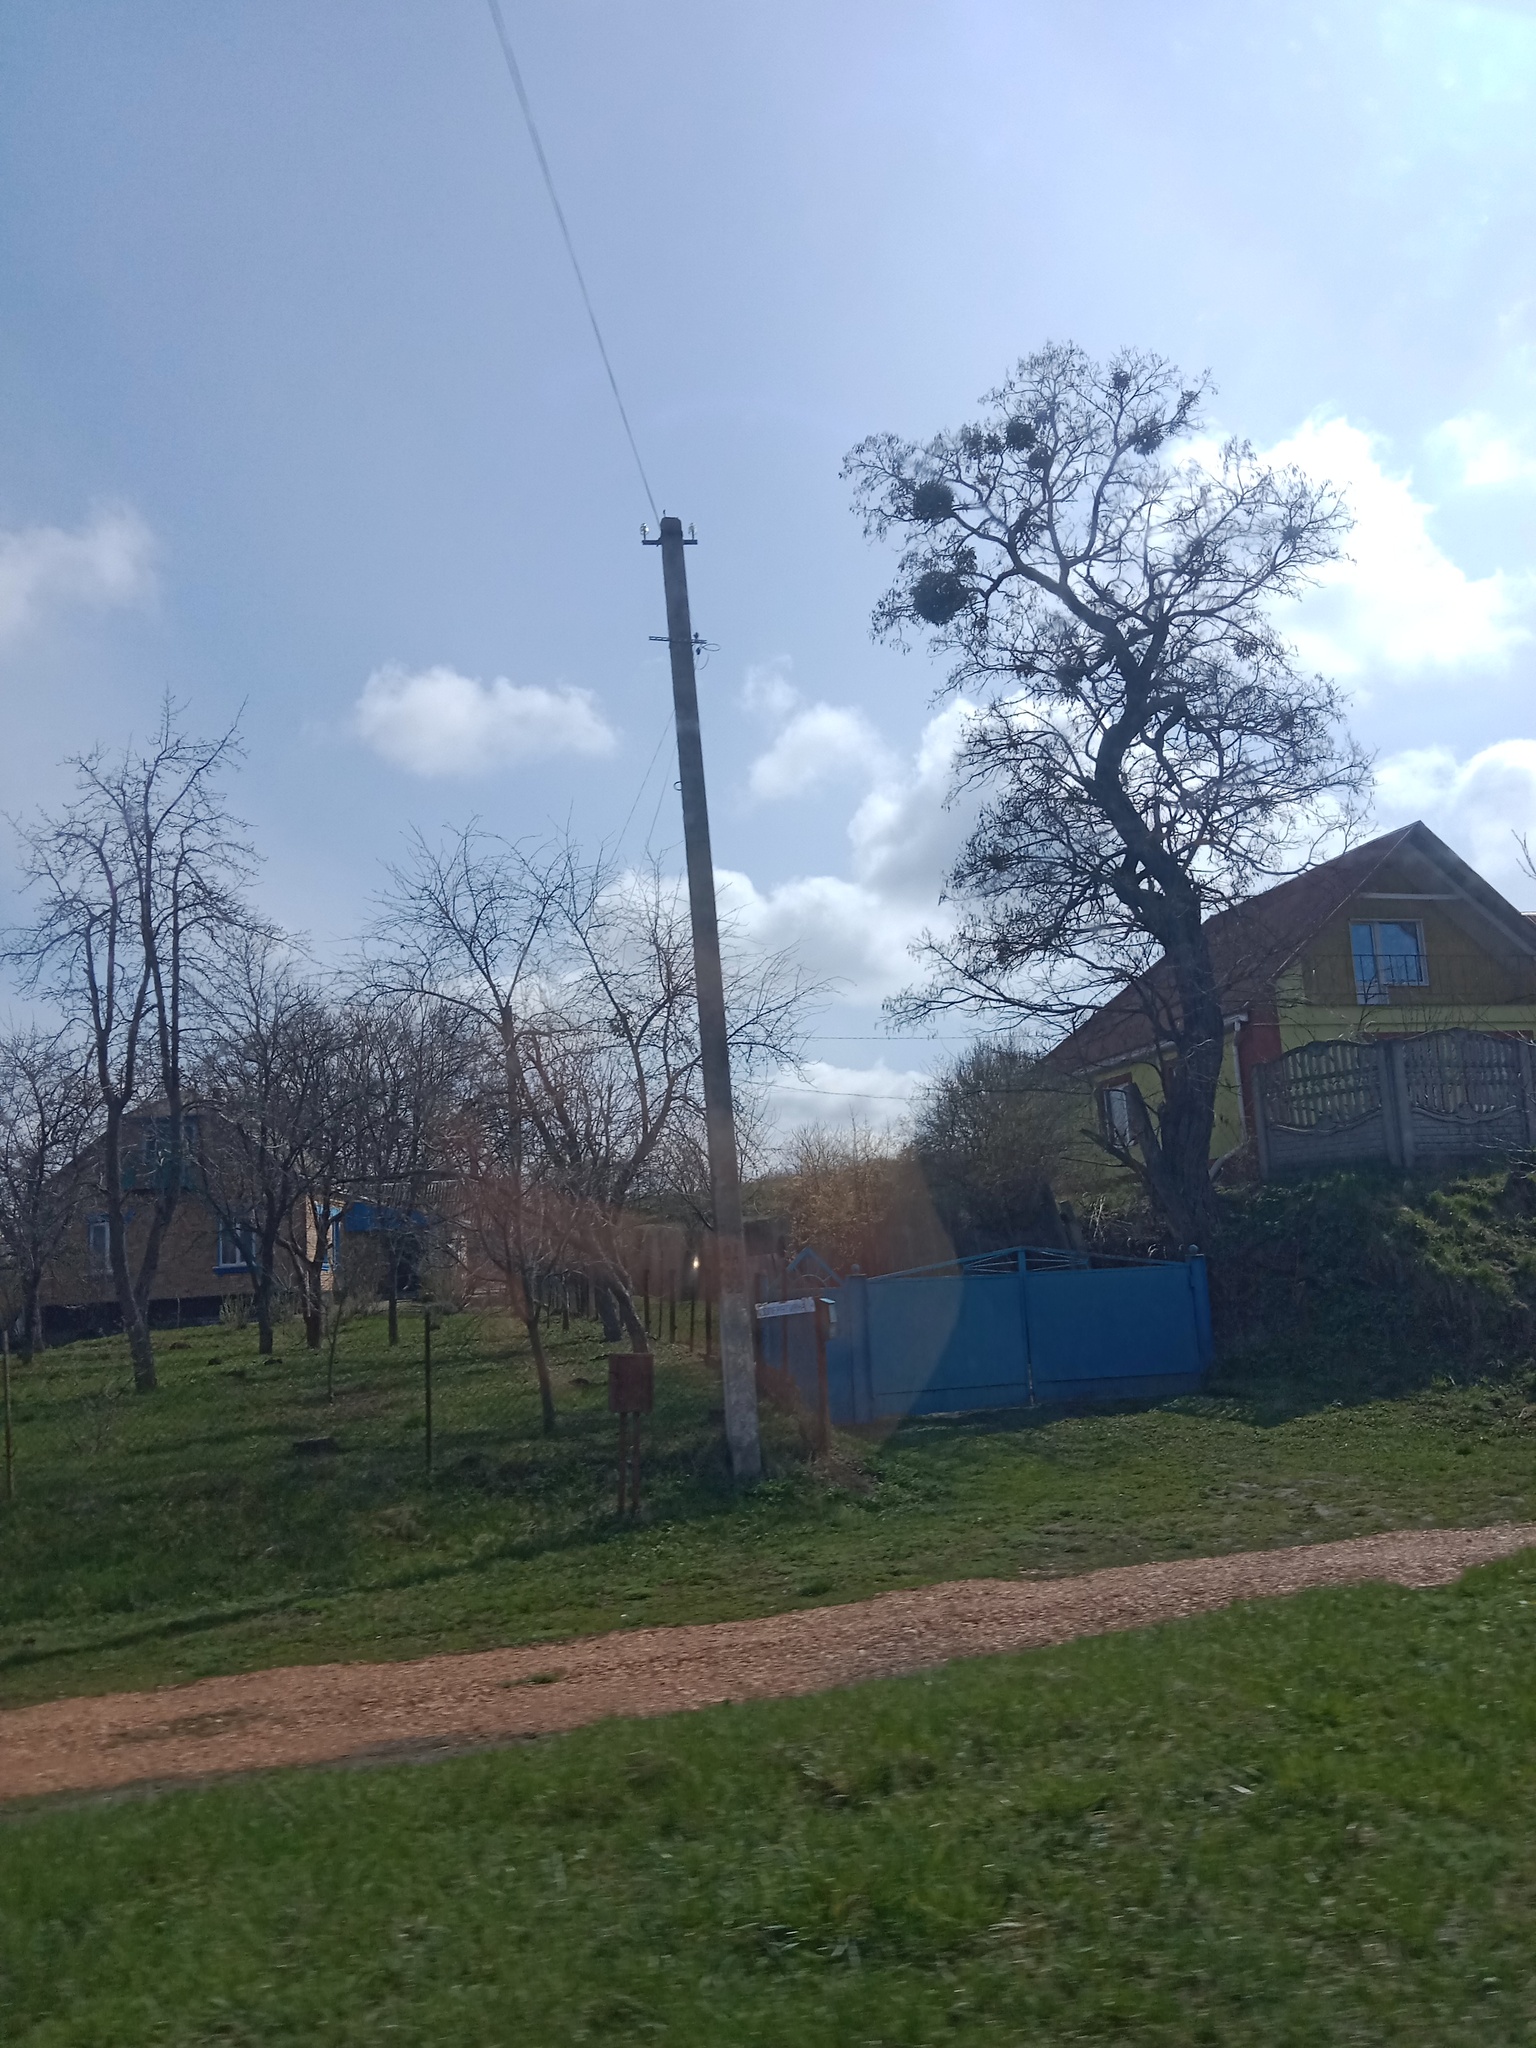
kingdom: Plantae
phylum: Tracheophyta
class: Magnoliopsida
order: Santalales
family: Viscaceae
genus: Viscum
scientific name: Viscum album
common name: Mistletoe
